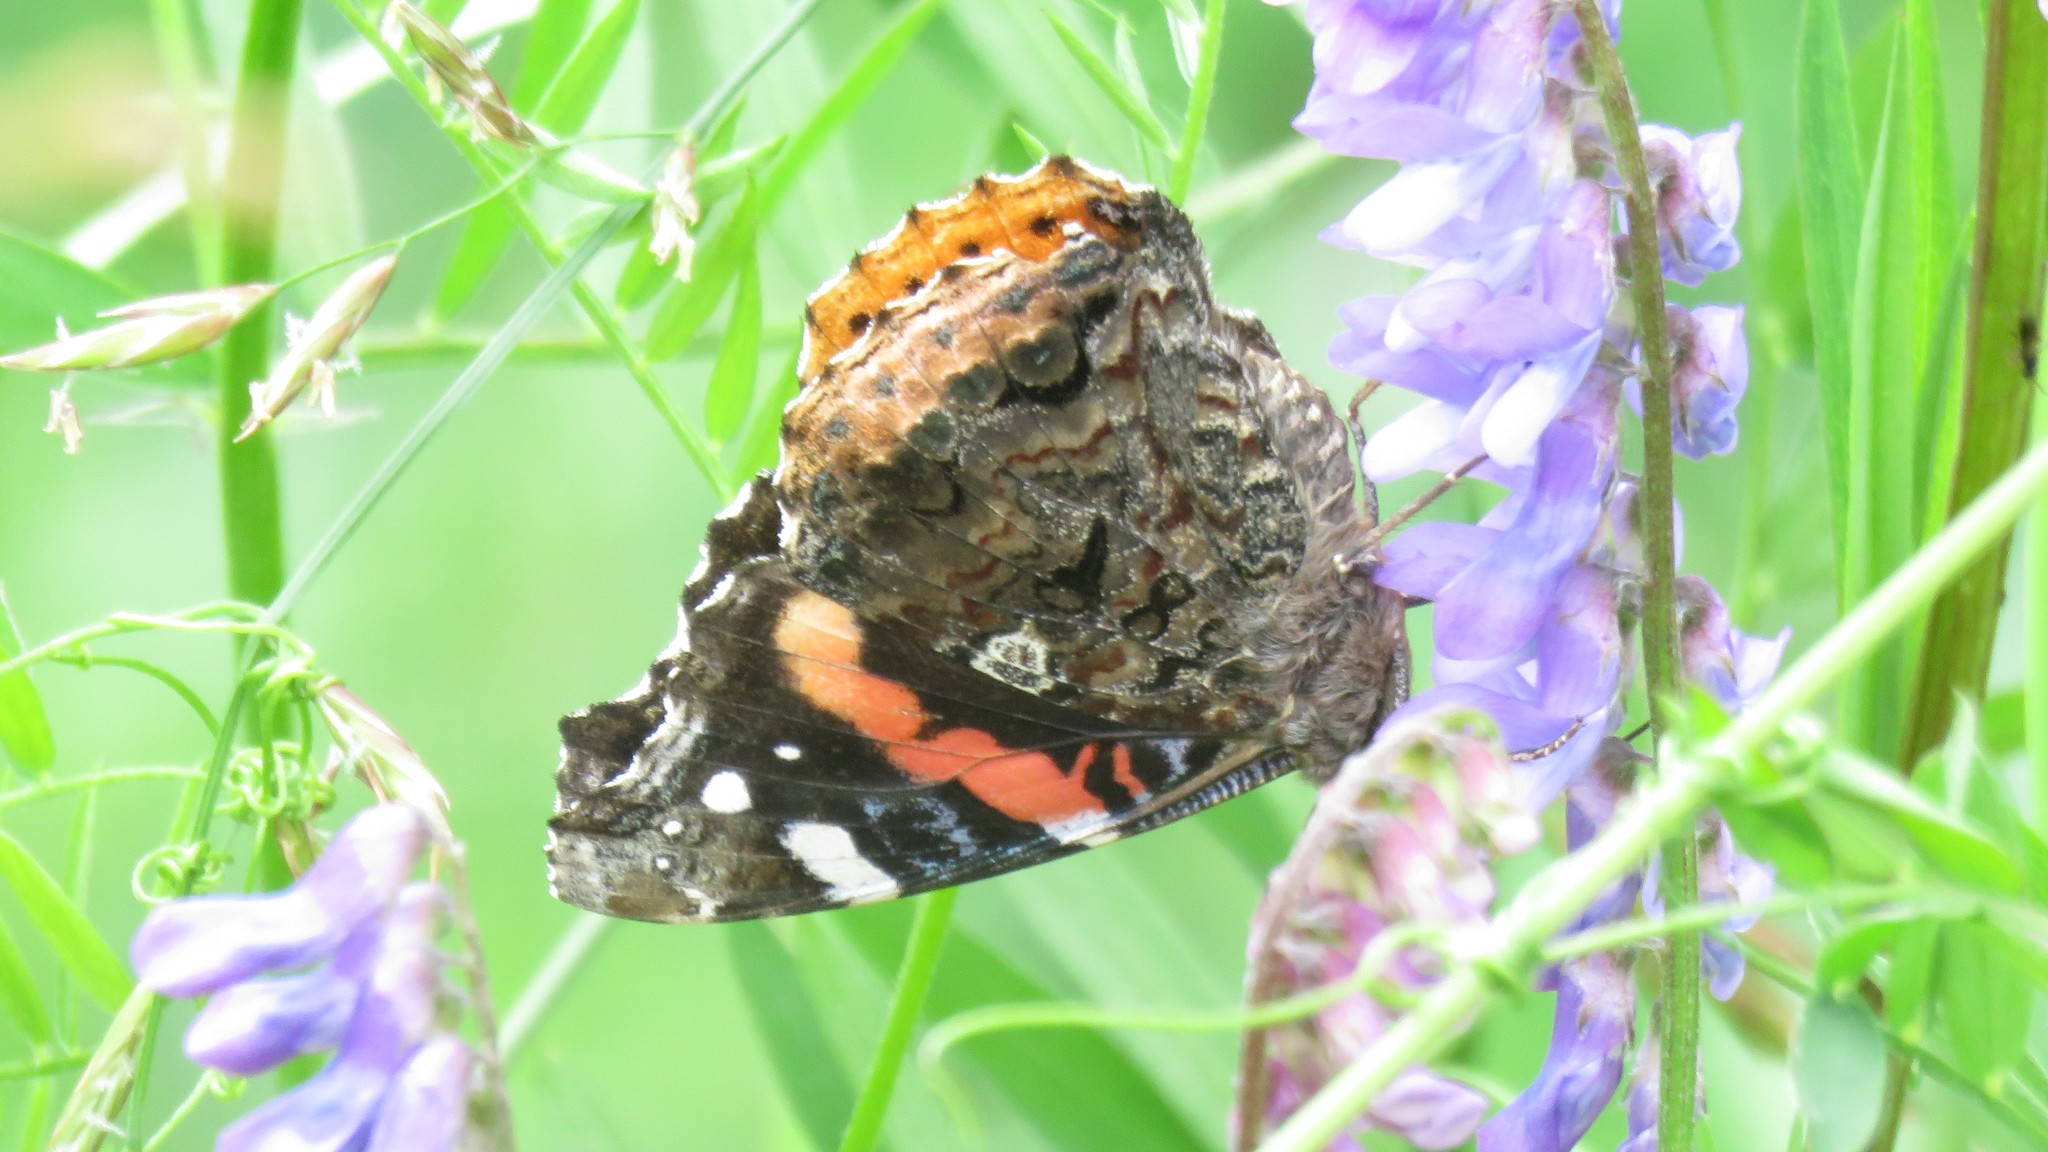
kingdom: Animalia
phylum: Arthropoda
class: Insecta
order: Lepidoptera
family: Nymphalidae
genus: Vanessa
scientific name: Vanessa atalanta
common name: Red admiral
